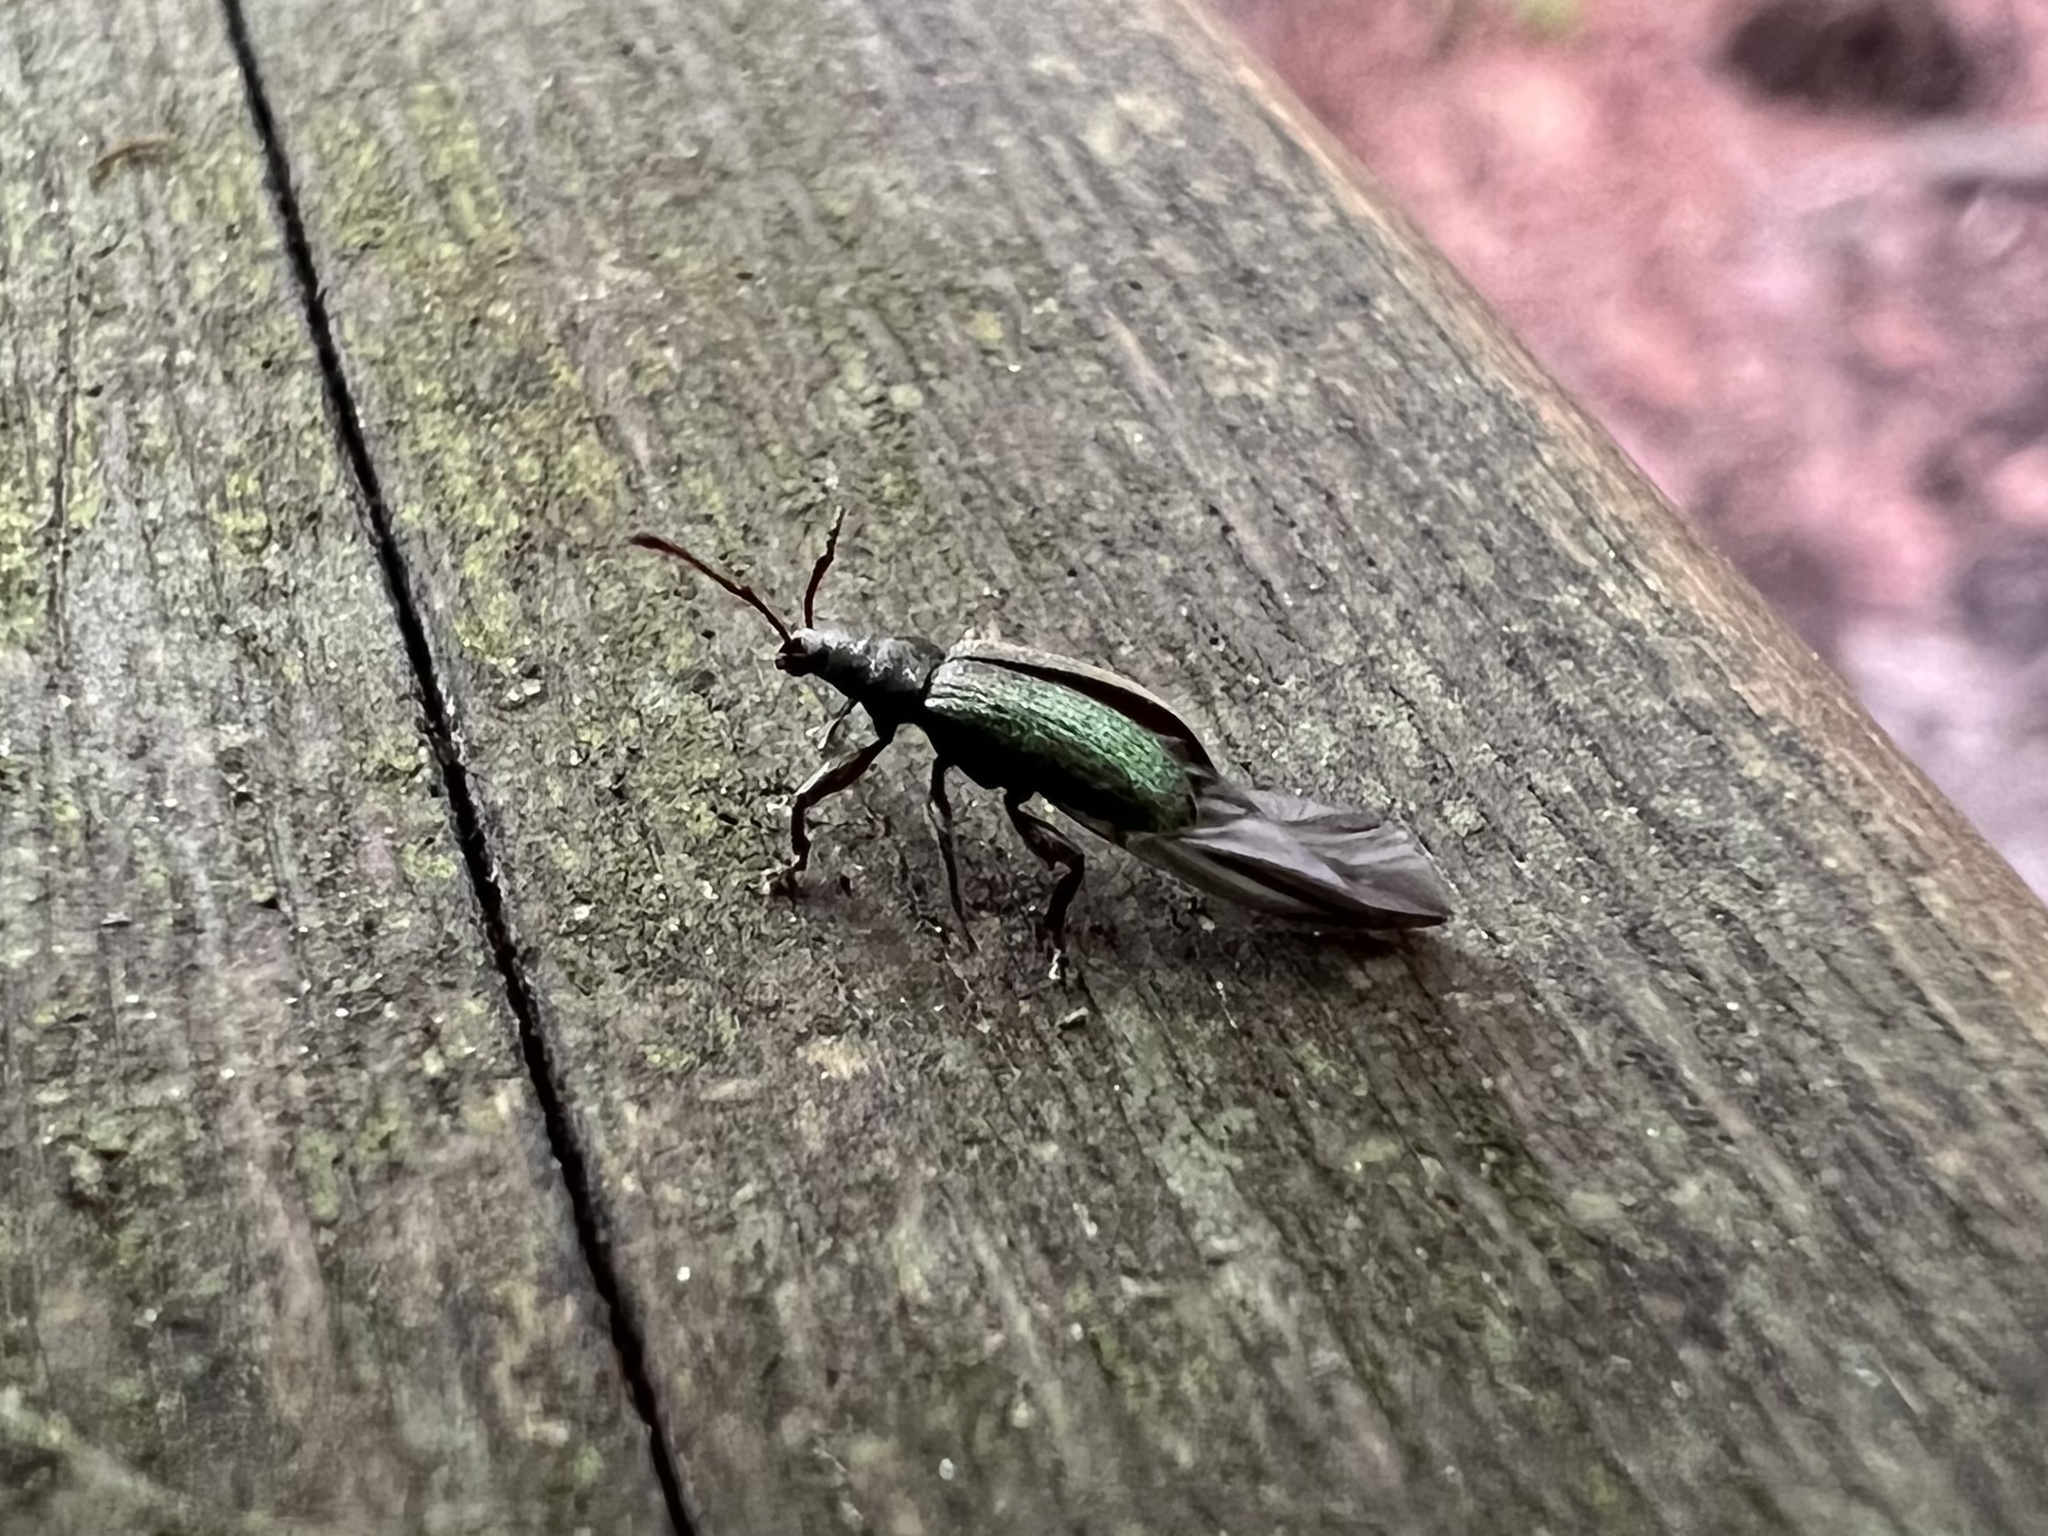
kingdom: Animalia
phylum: Arthropoda
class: Insecta
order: Coleoptera
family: Curculionidae
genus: Parascythopus
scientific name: Parascythopus intrusus
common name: Weevil
